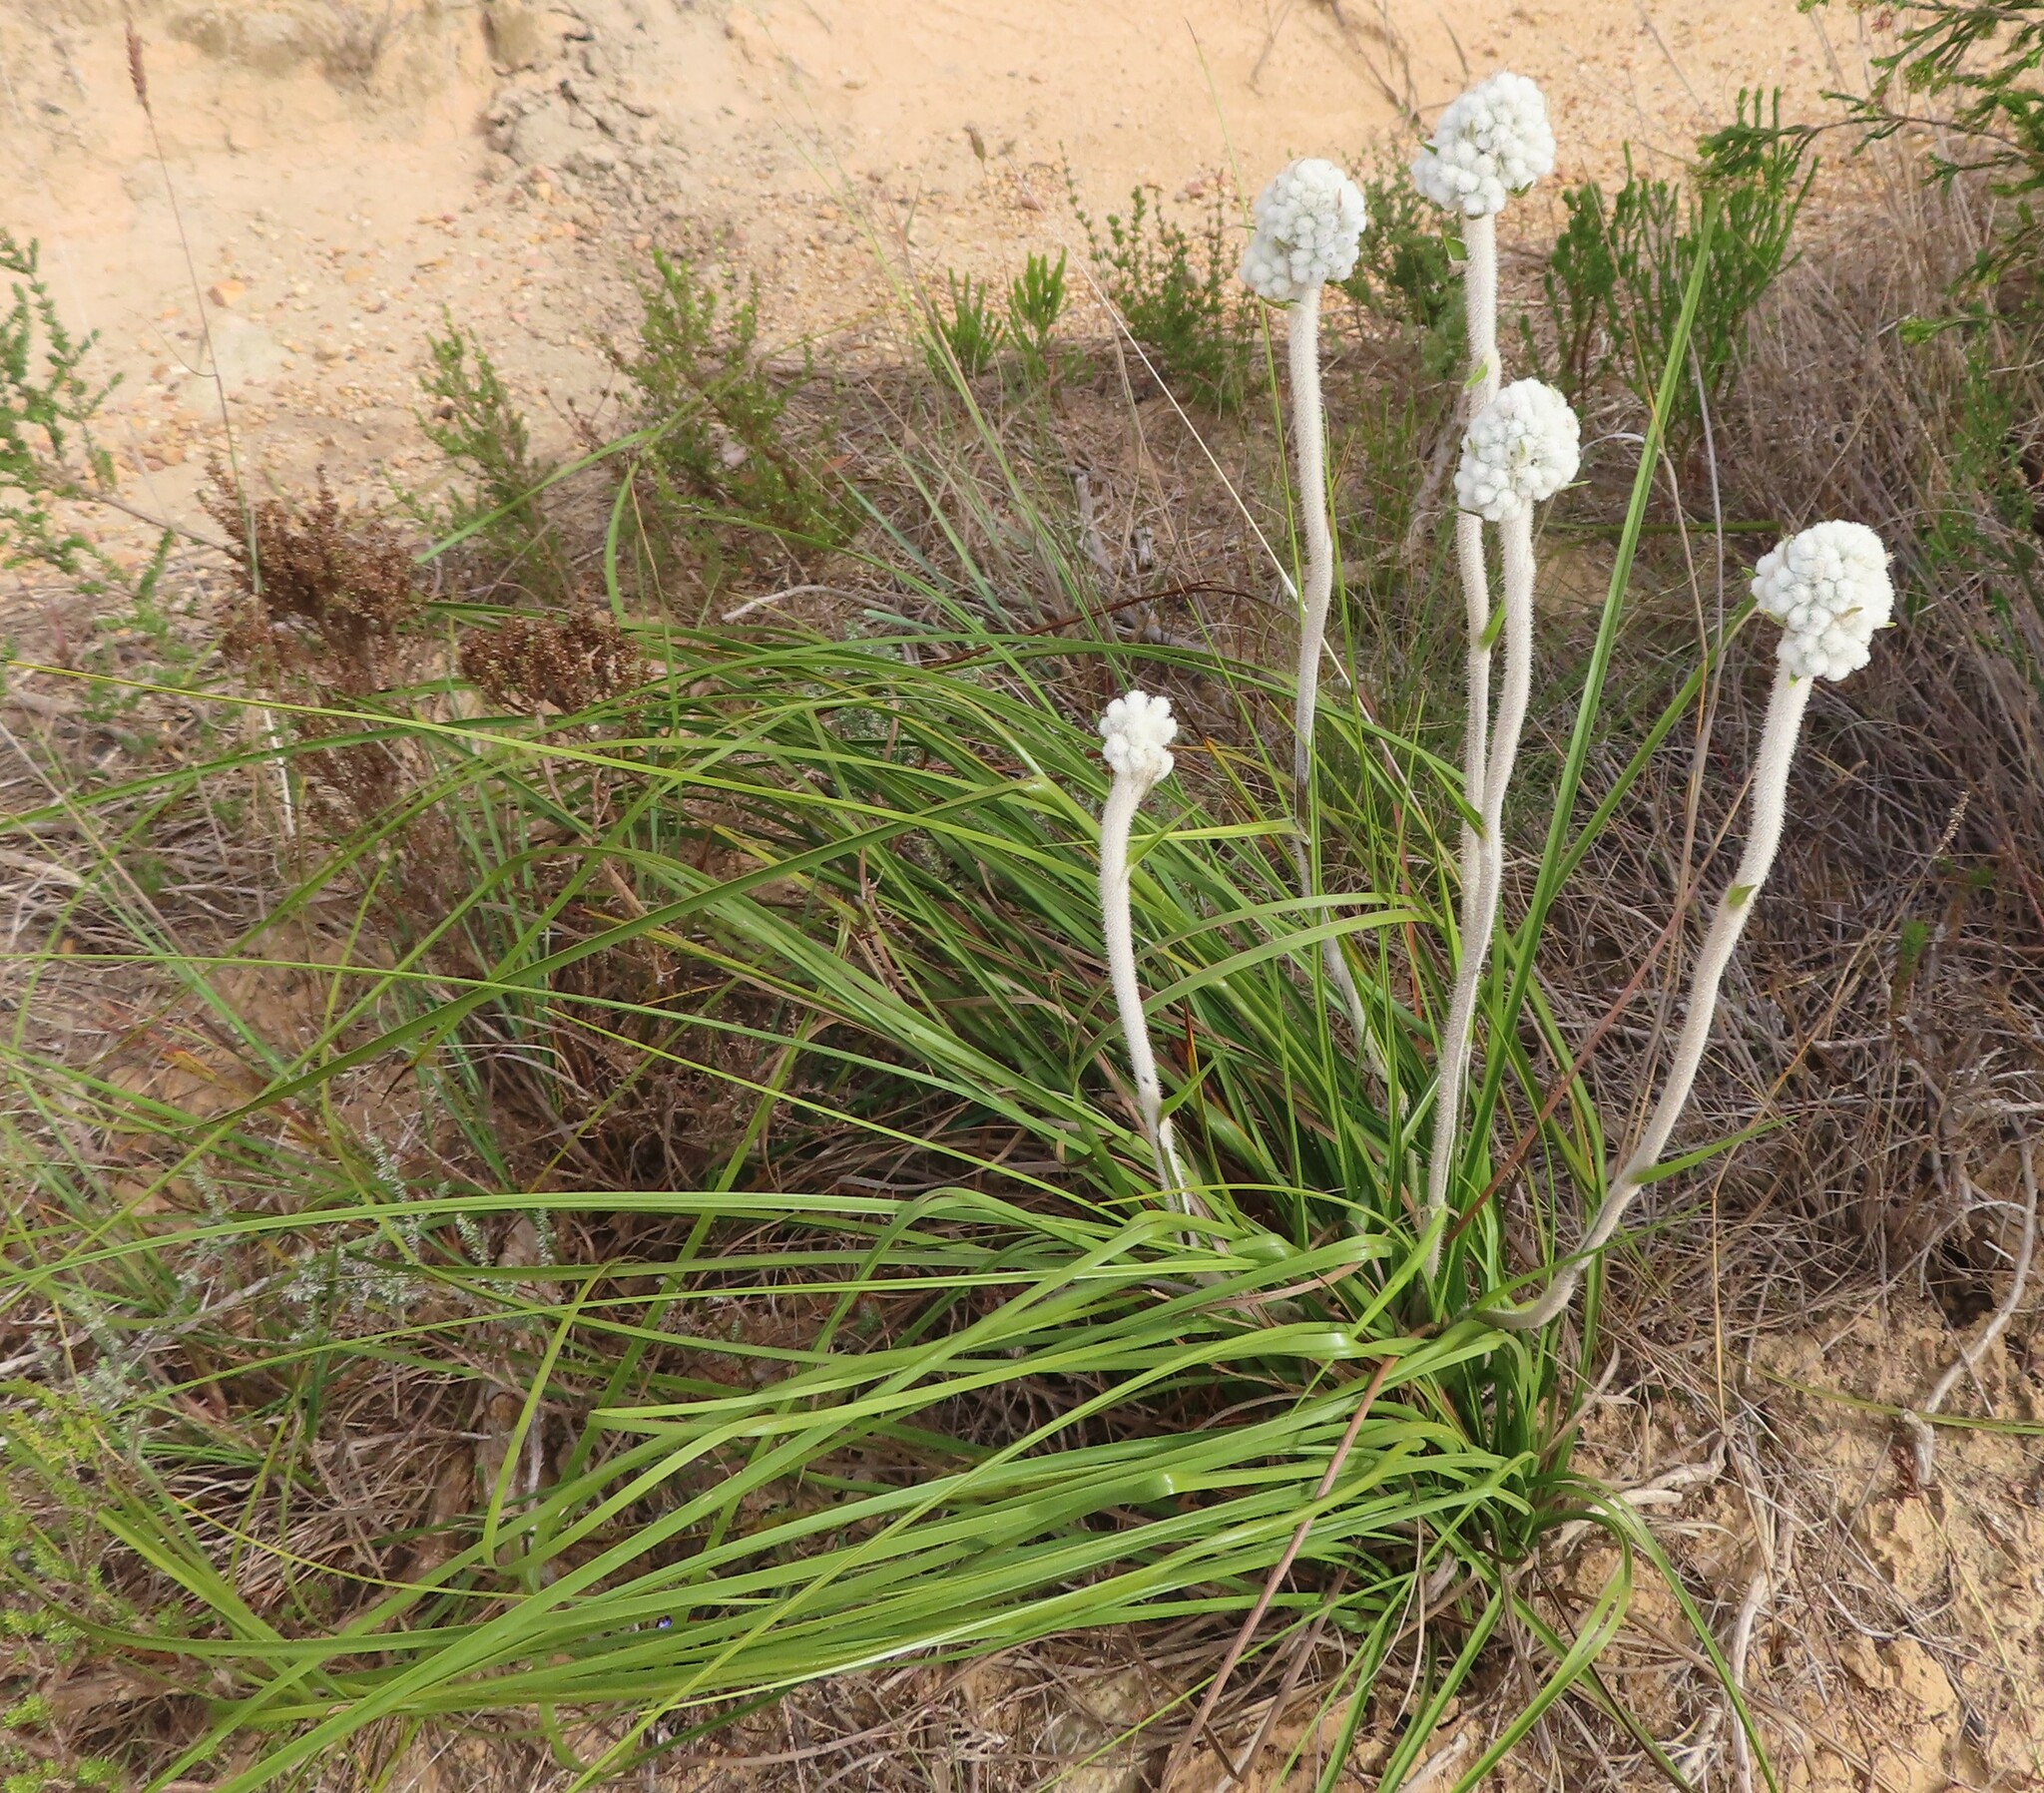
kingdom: Plantae
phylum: Tracheophyta
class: Liliopsida
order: Asparagales
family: Lanariaceae
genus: Lanaria
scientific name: Lanaria lanata
